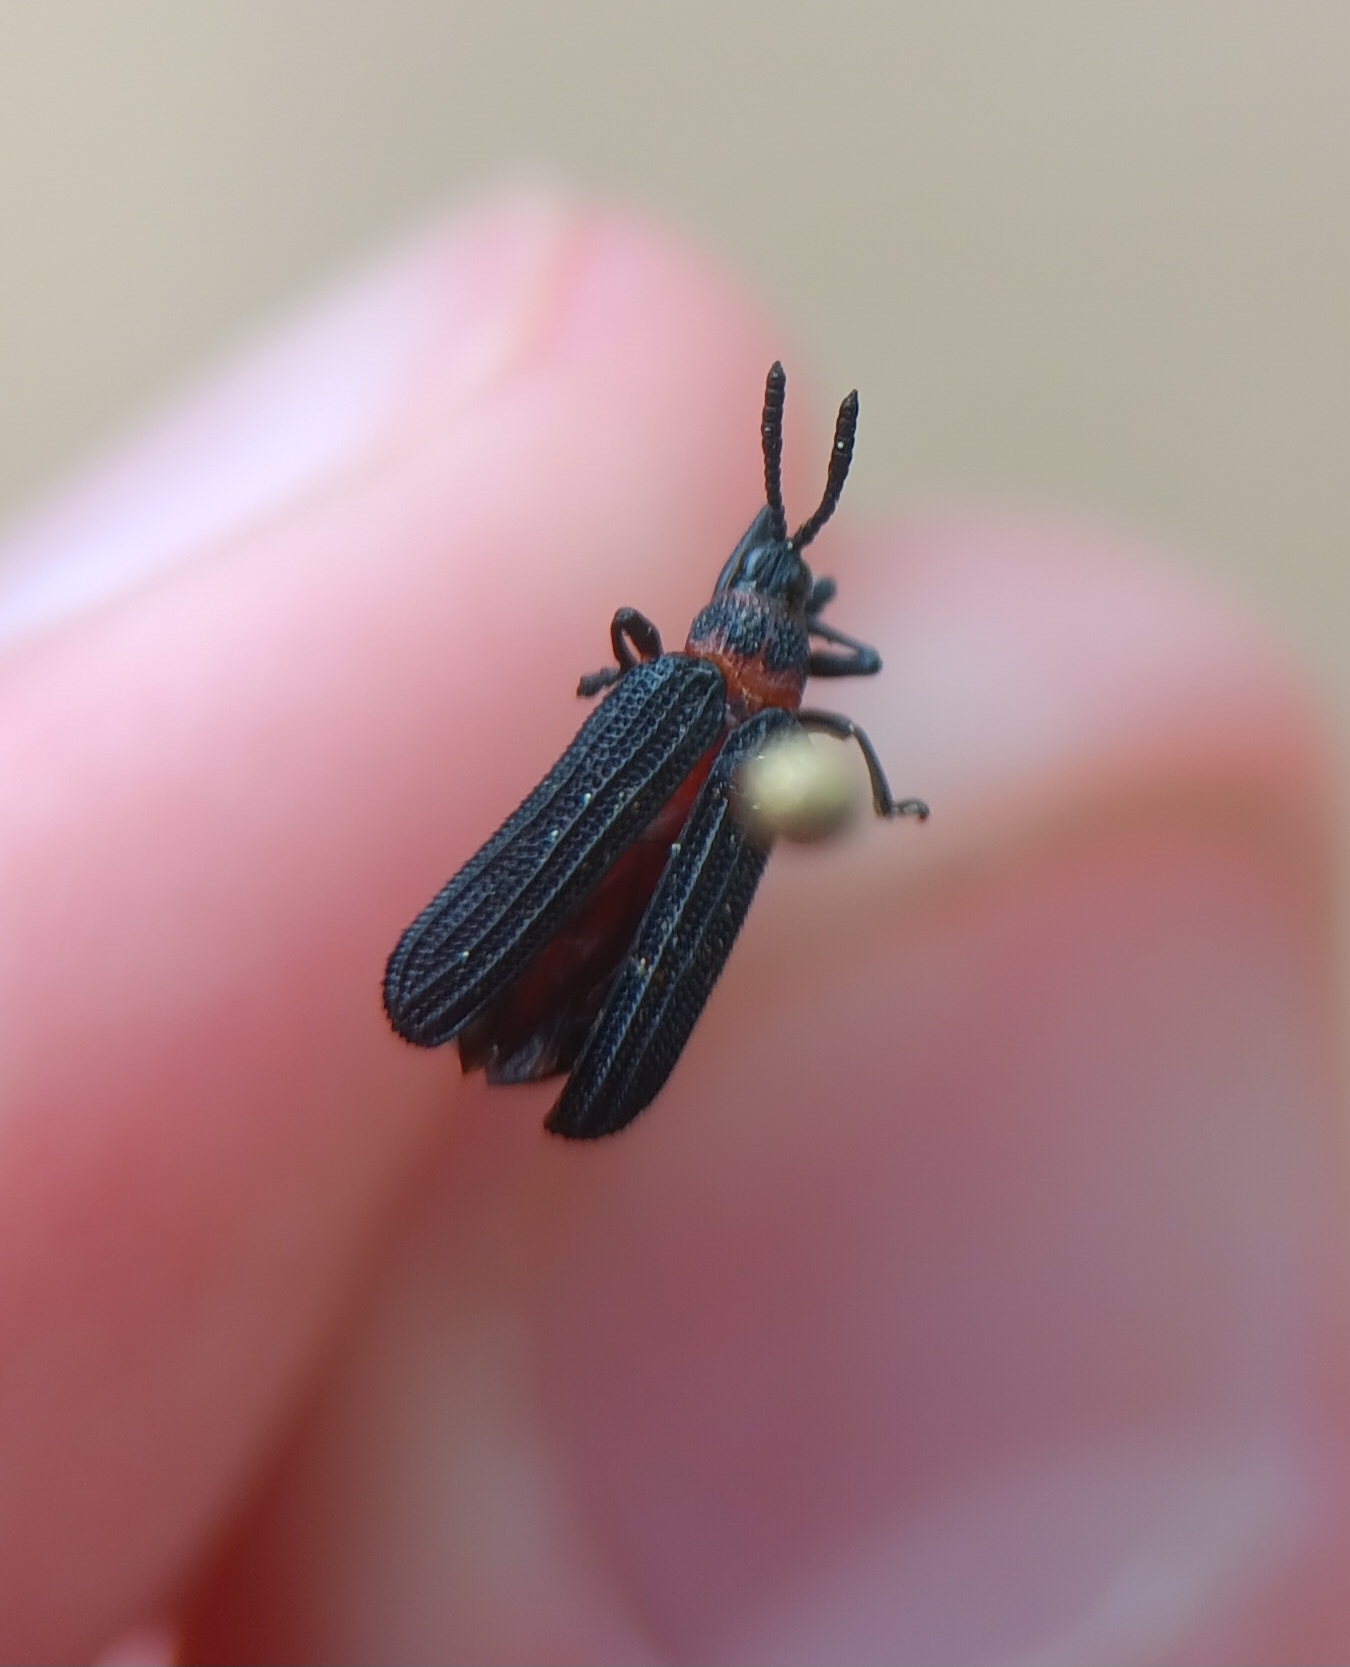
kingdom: Animalia
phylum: Arthropoda
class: Insecta
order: Coleoptera
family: Chrysomelidae
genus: Chalepus
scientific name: Chalepus bicolor
